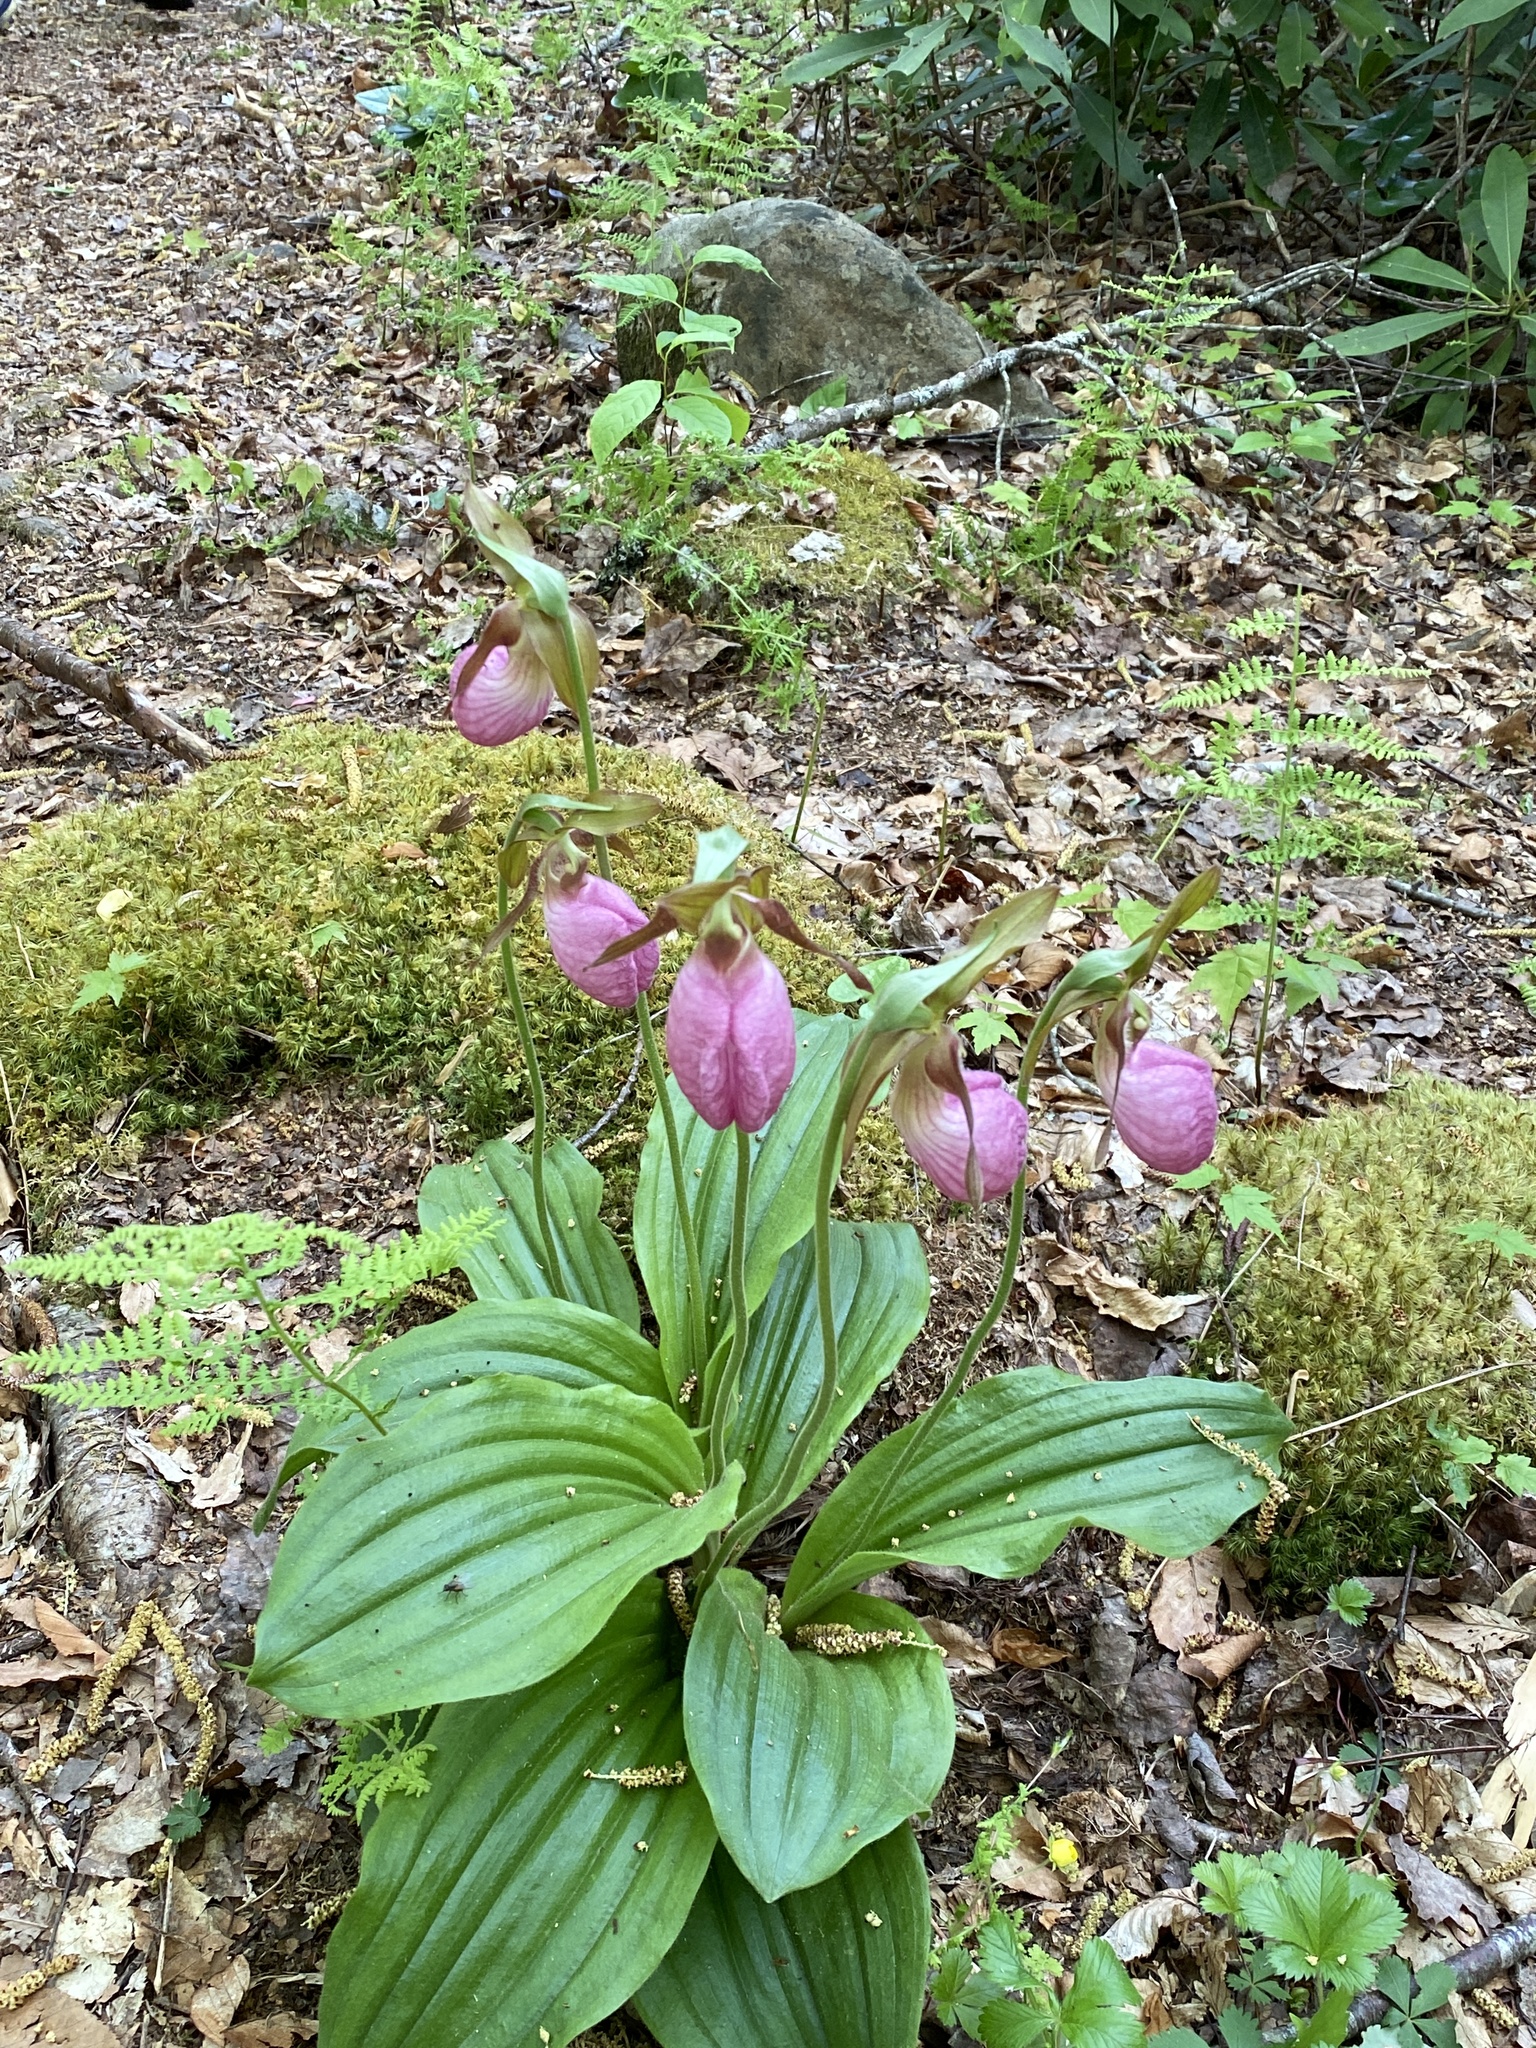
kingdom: Plantae
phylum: Tracheophyta
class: Liliopsida
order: Asparagales
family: Orchidaceae
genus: Cypripedium
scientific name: Cypripedium acaule
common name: Pink lady's-slipper
